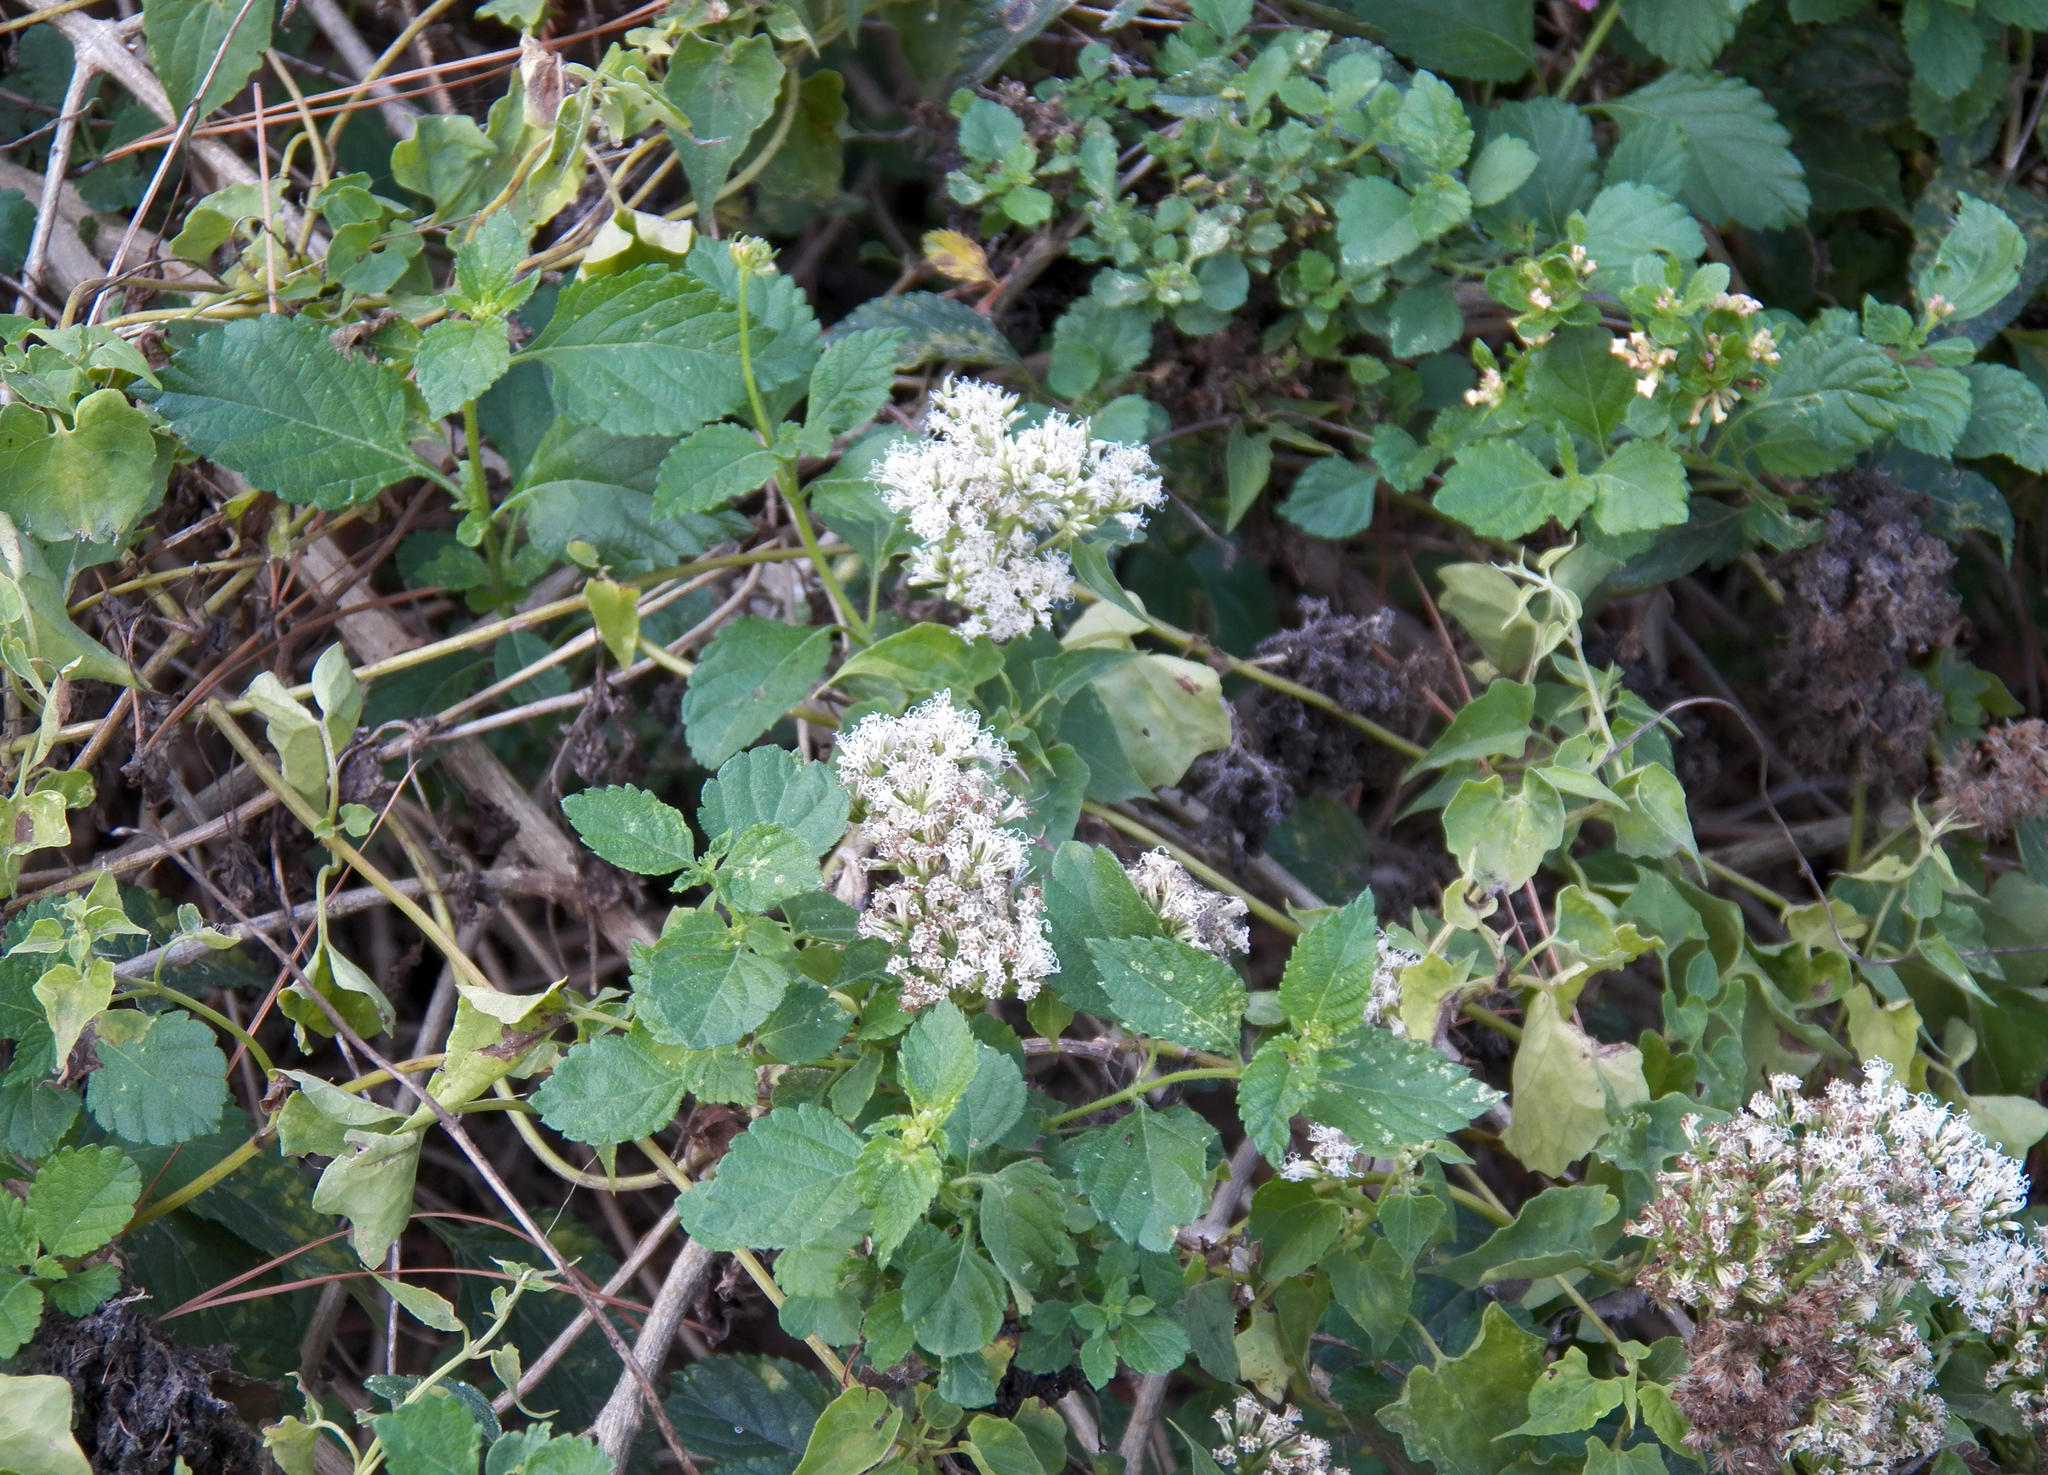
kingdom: Plantae
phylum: Tracheophyta
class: Magnoliopsida
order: Asterales
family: Asteraceae
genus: Mikania
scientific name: Mikania scandens
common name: Climbing hempvine
